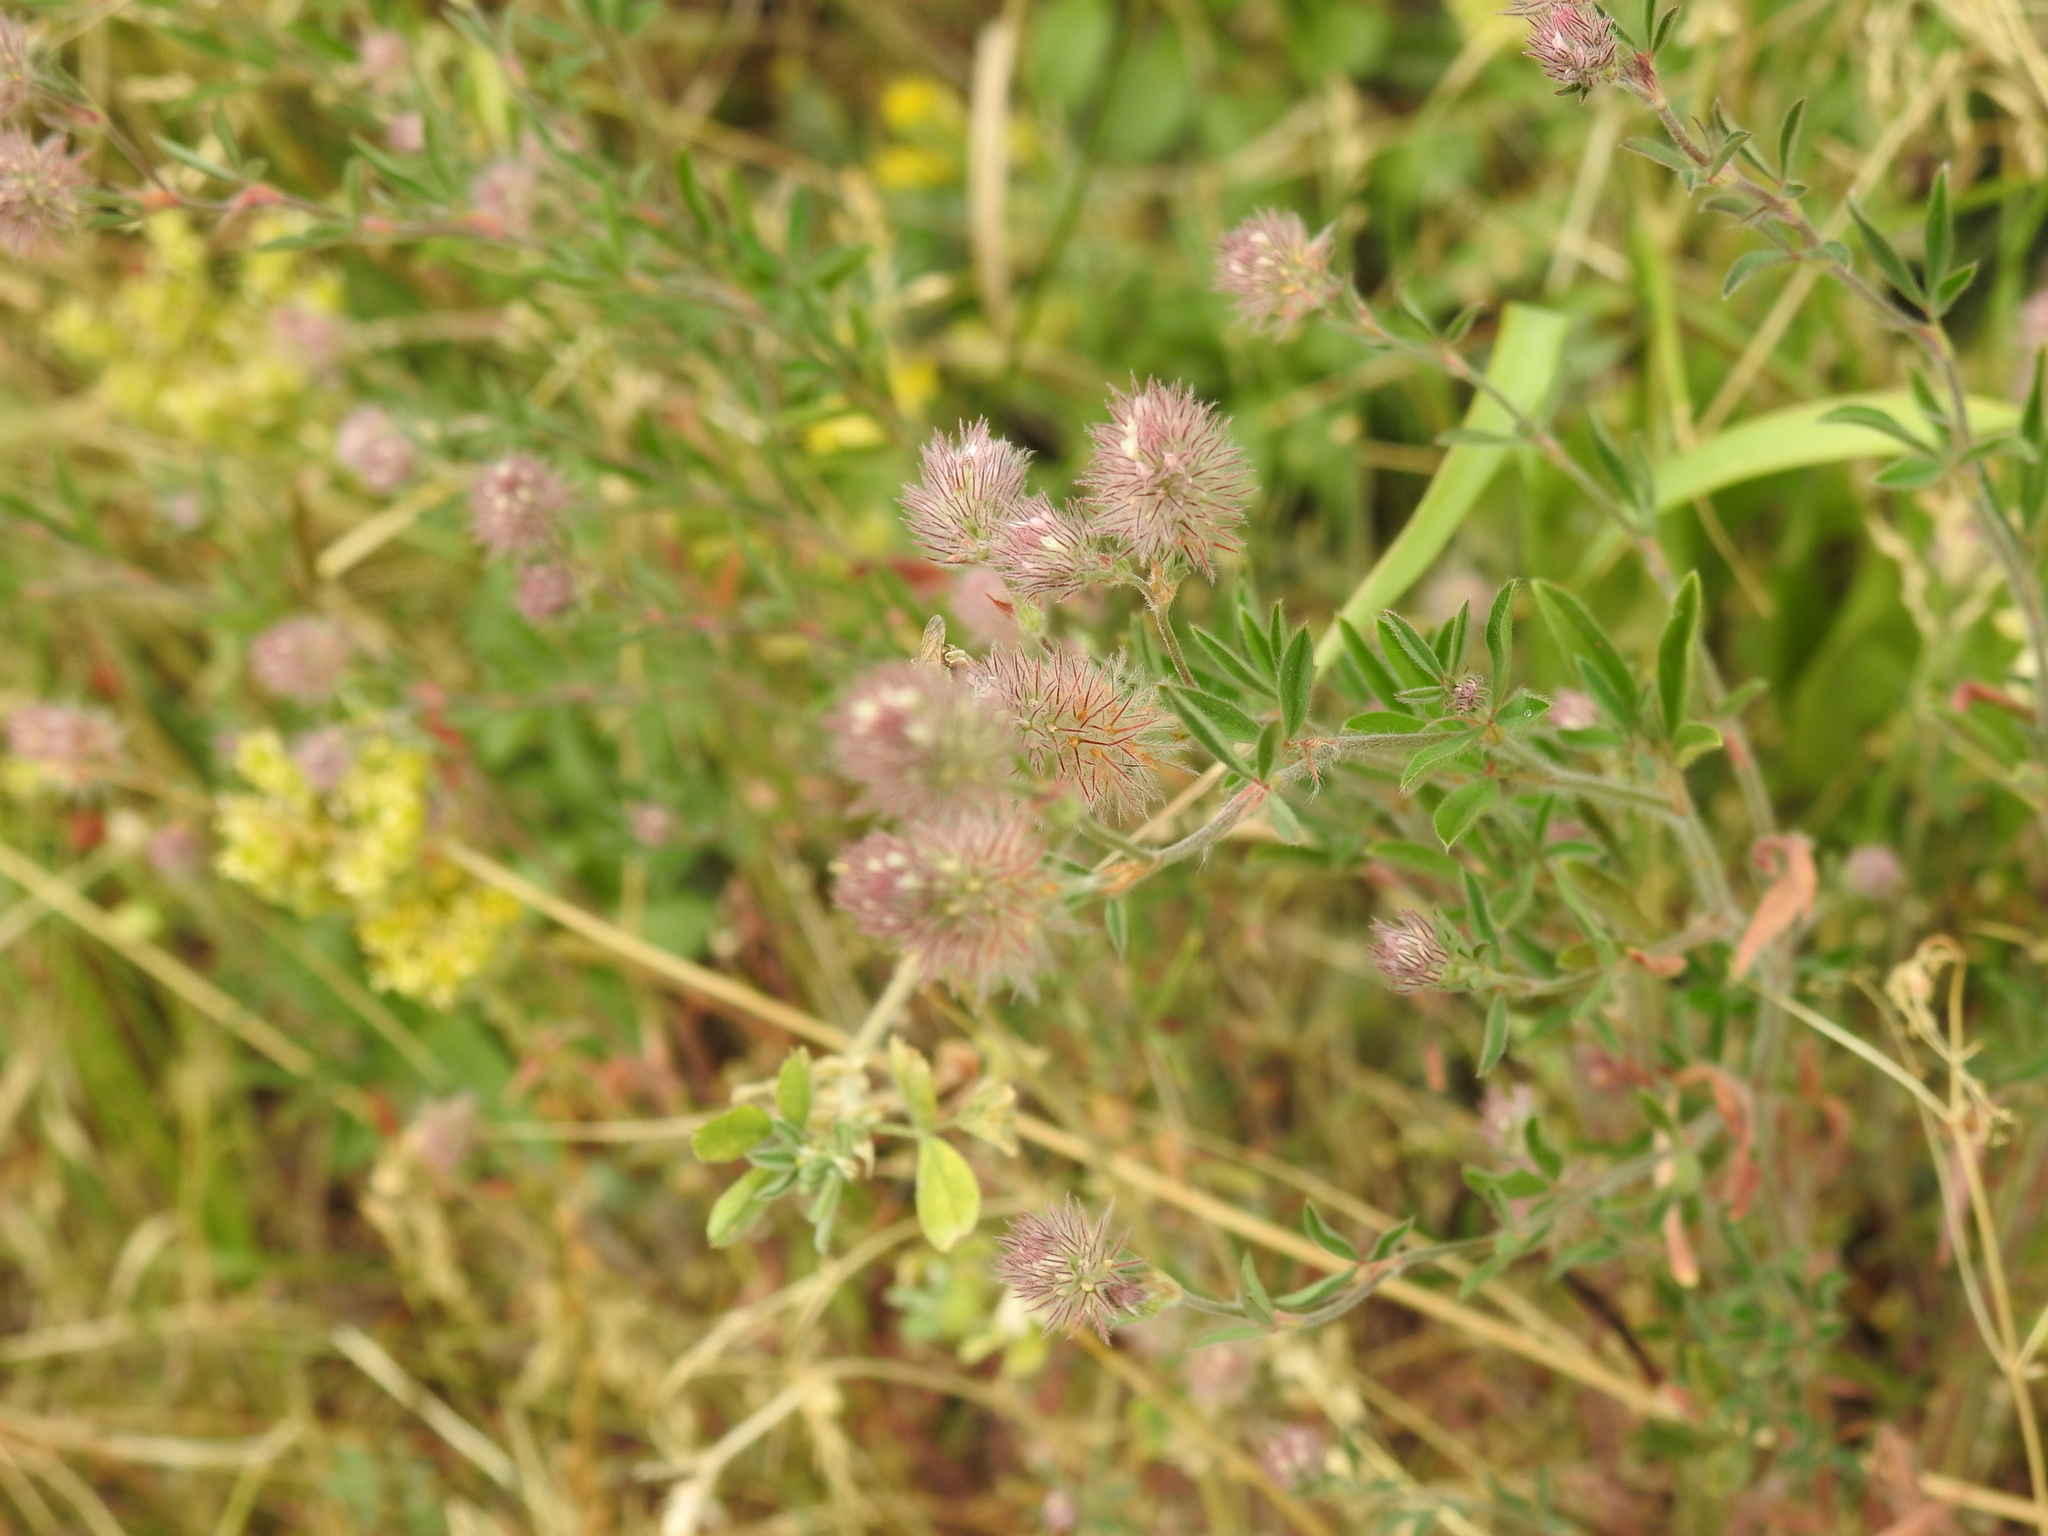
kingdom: Plantae
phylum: Tracheophyta
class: Magnoliopsida
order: Fabales
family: Fabaceae
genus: Trifolium
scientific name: Trifolium arvense
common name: Hare's-foot clover
